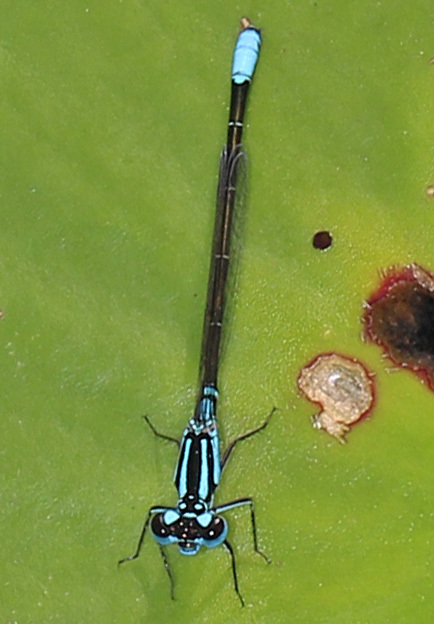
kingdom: Animalia
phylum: Arthropoda
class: Insecta
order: Odonata
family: Coenagrionidae
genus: Ischnura
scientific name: Ischnura kellicotti
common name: Lilypad forktail
